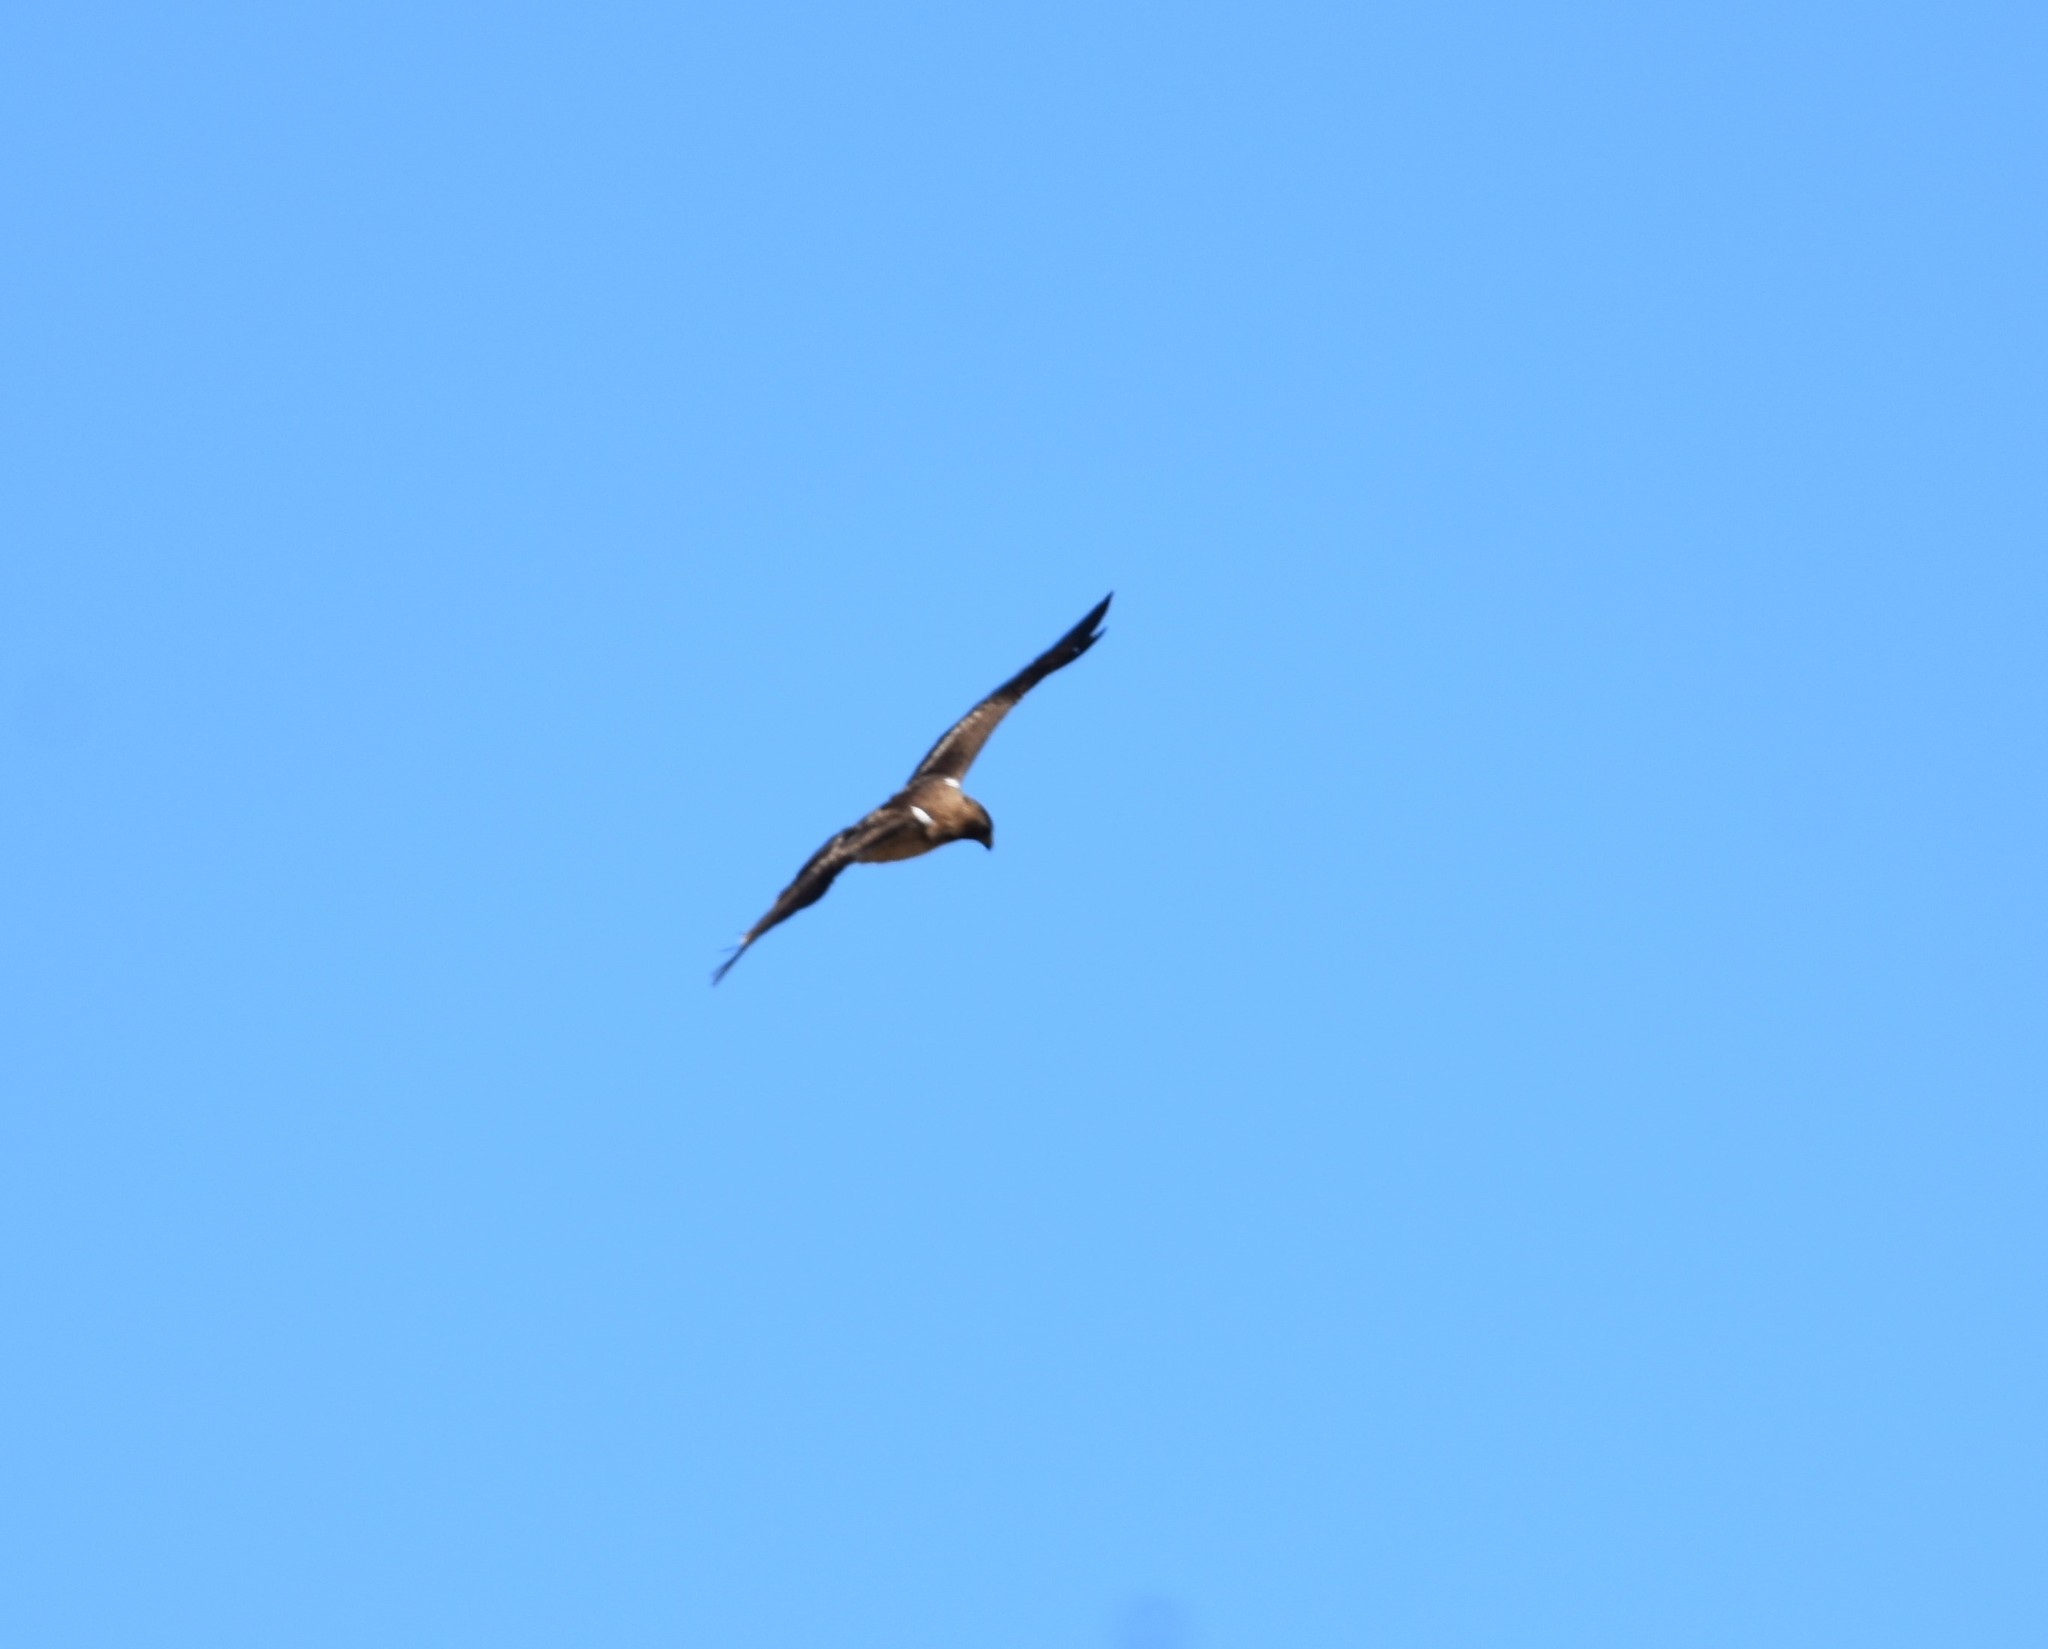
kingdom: Animalia
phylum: Chordata
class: Aves
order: Accipitriformes
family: Accipitridae
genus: Hieraaetus
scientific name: Hieraaetus pennatus
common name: Booted eagle
